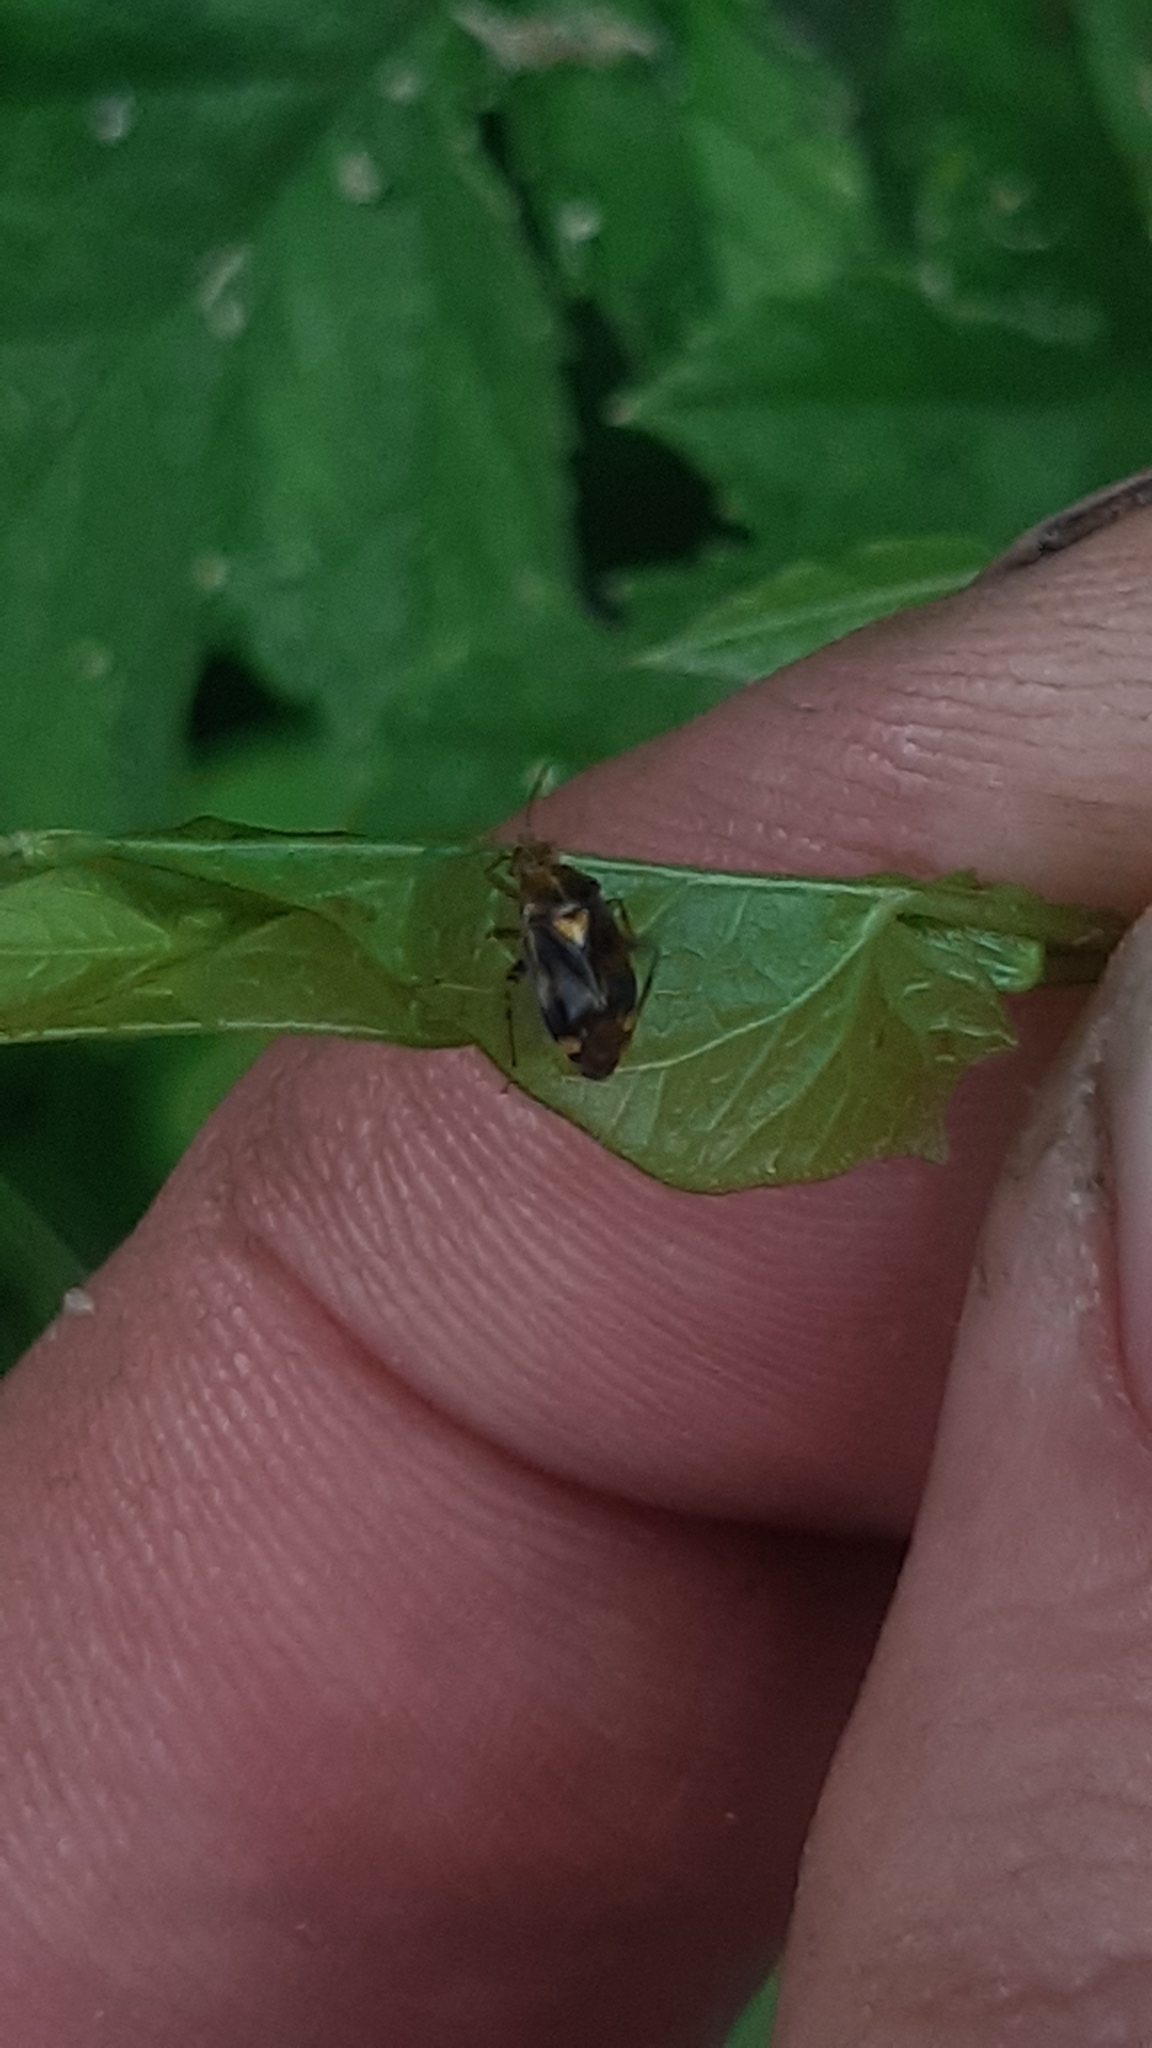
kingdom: Animalia
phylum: Arthropoda
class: Insecta
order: Hemiptera
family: Miridae
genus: Liocoris
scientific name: Liocoris tripustulatus
